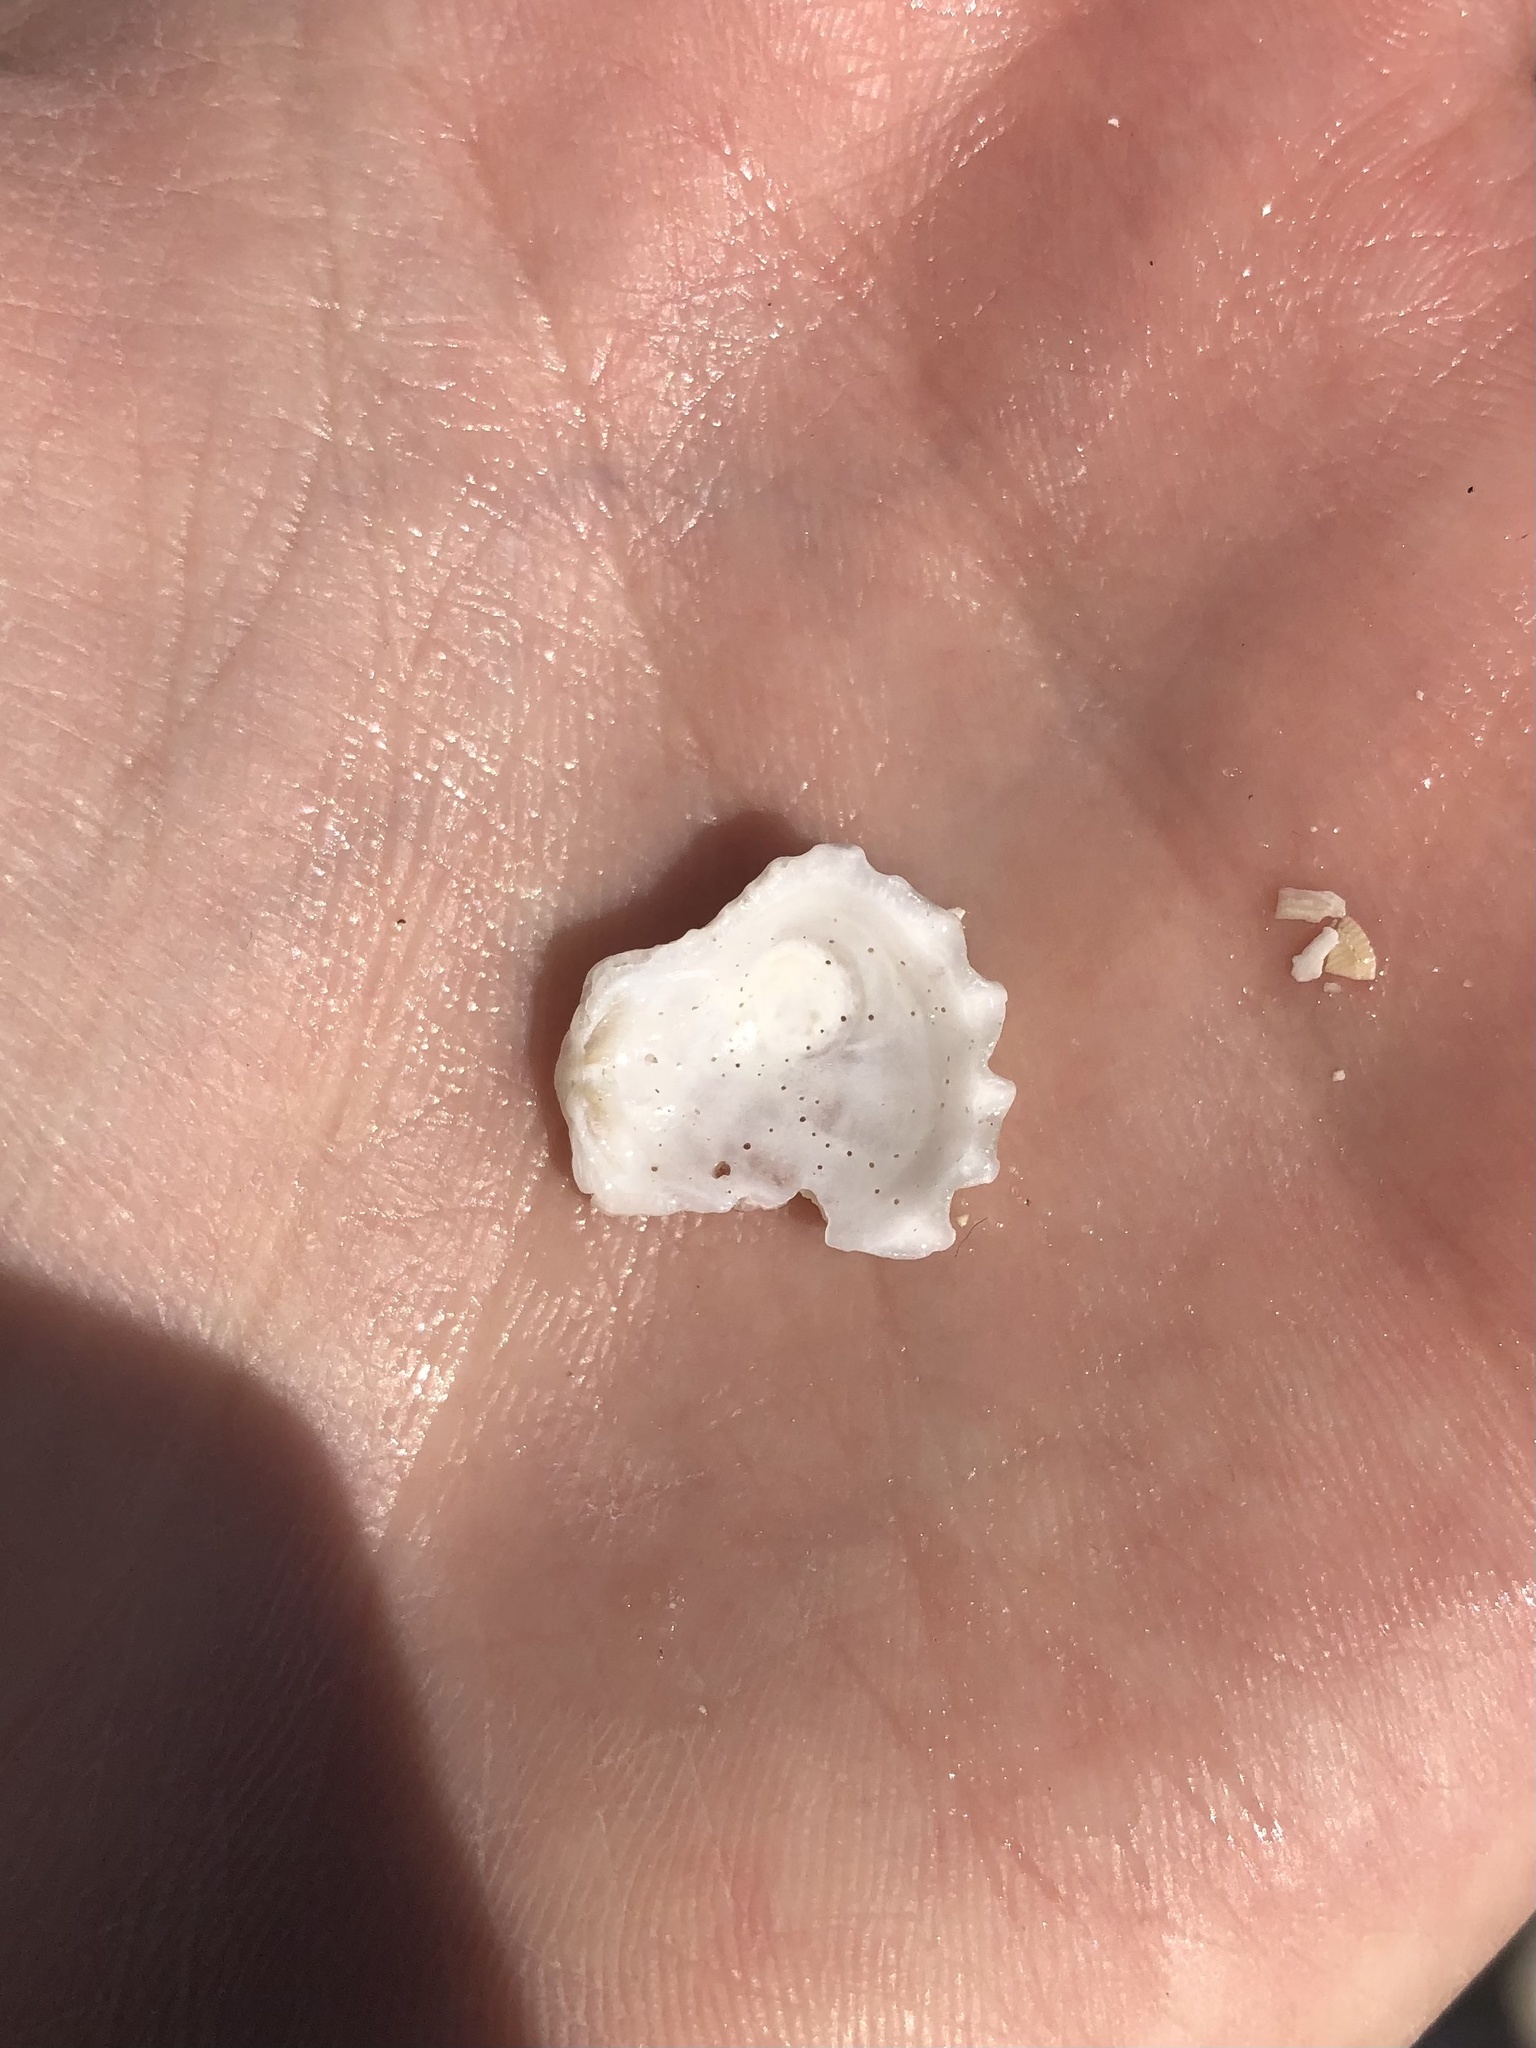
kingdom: Animalia
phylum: Mollusca
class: Bivalvia
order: Pectinida
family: Plicatulidae
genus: Plicatula
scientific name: Plicatula gibbosa
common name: Atlantic kitten's paw
